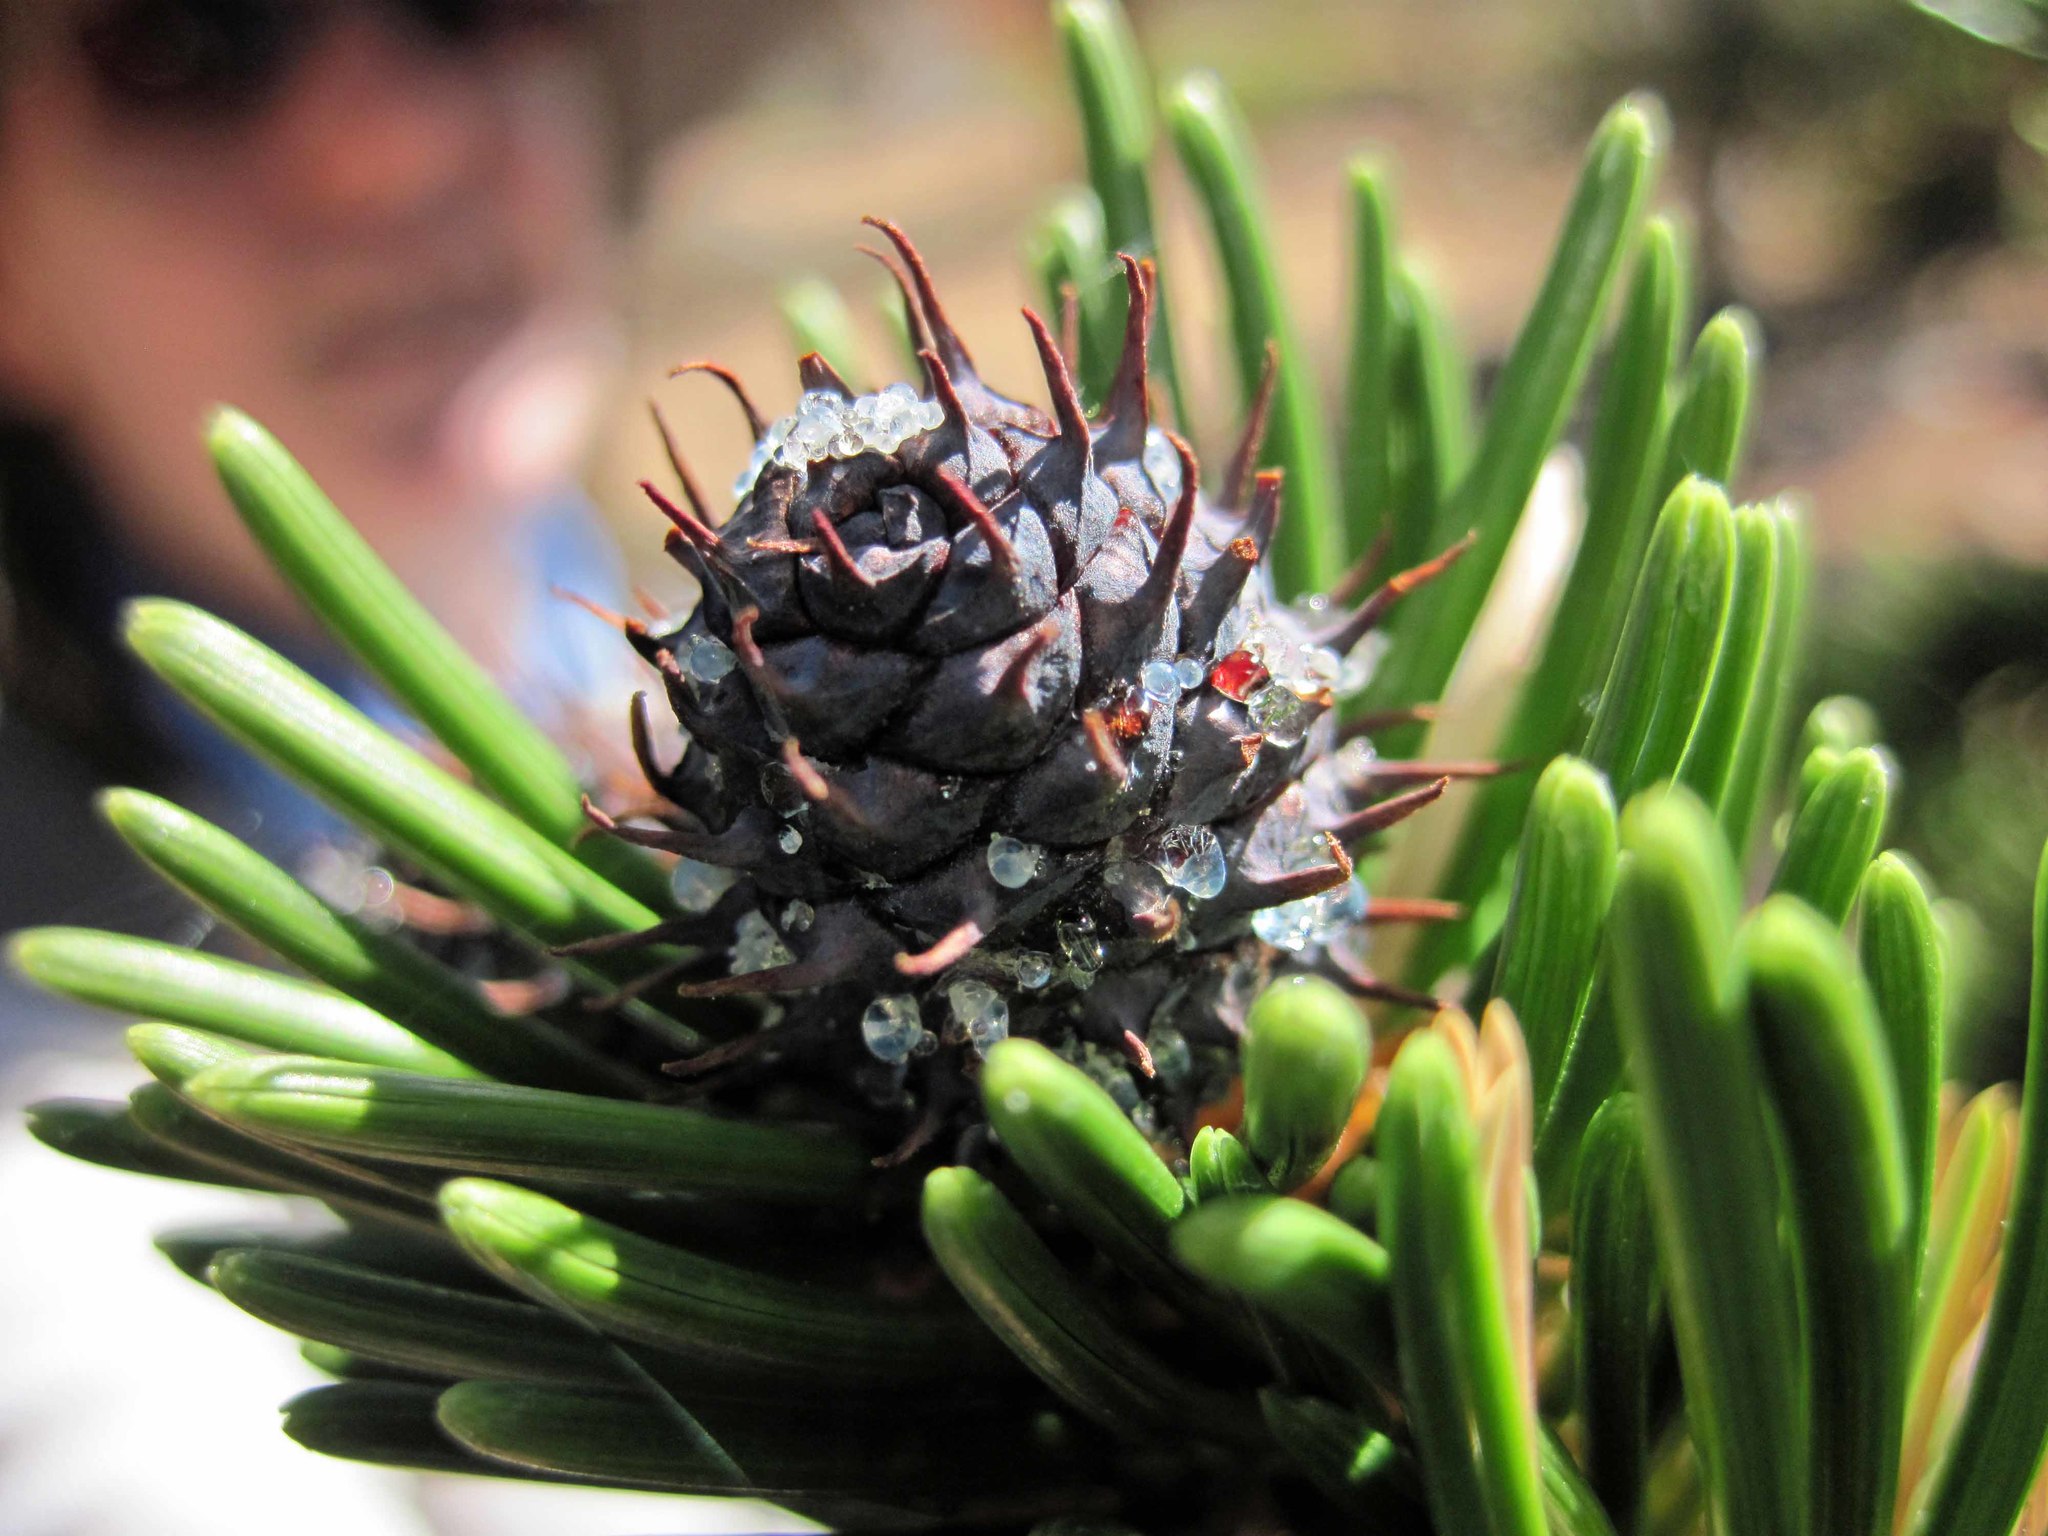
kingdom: Plantae
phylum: Tracheophyta
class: Pinopsida
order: Pinales
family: Pinaceae
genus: Pinus
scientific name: Pinus longaeva
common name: Intermountain bristlecone pine
